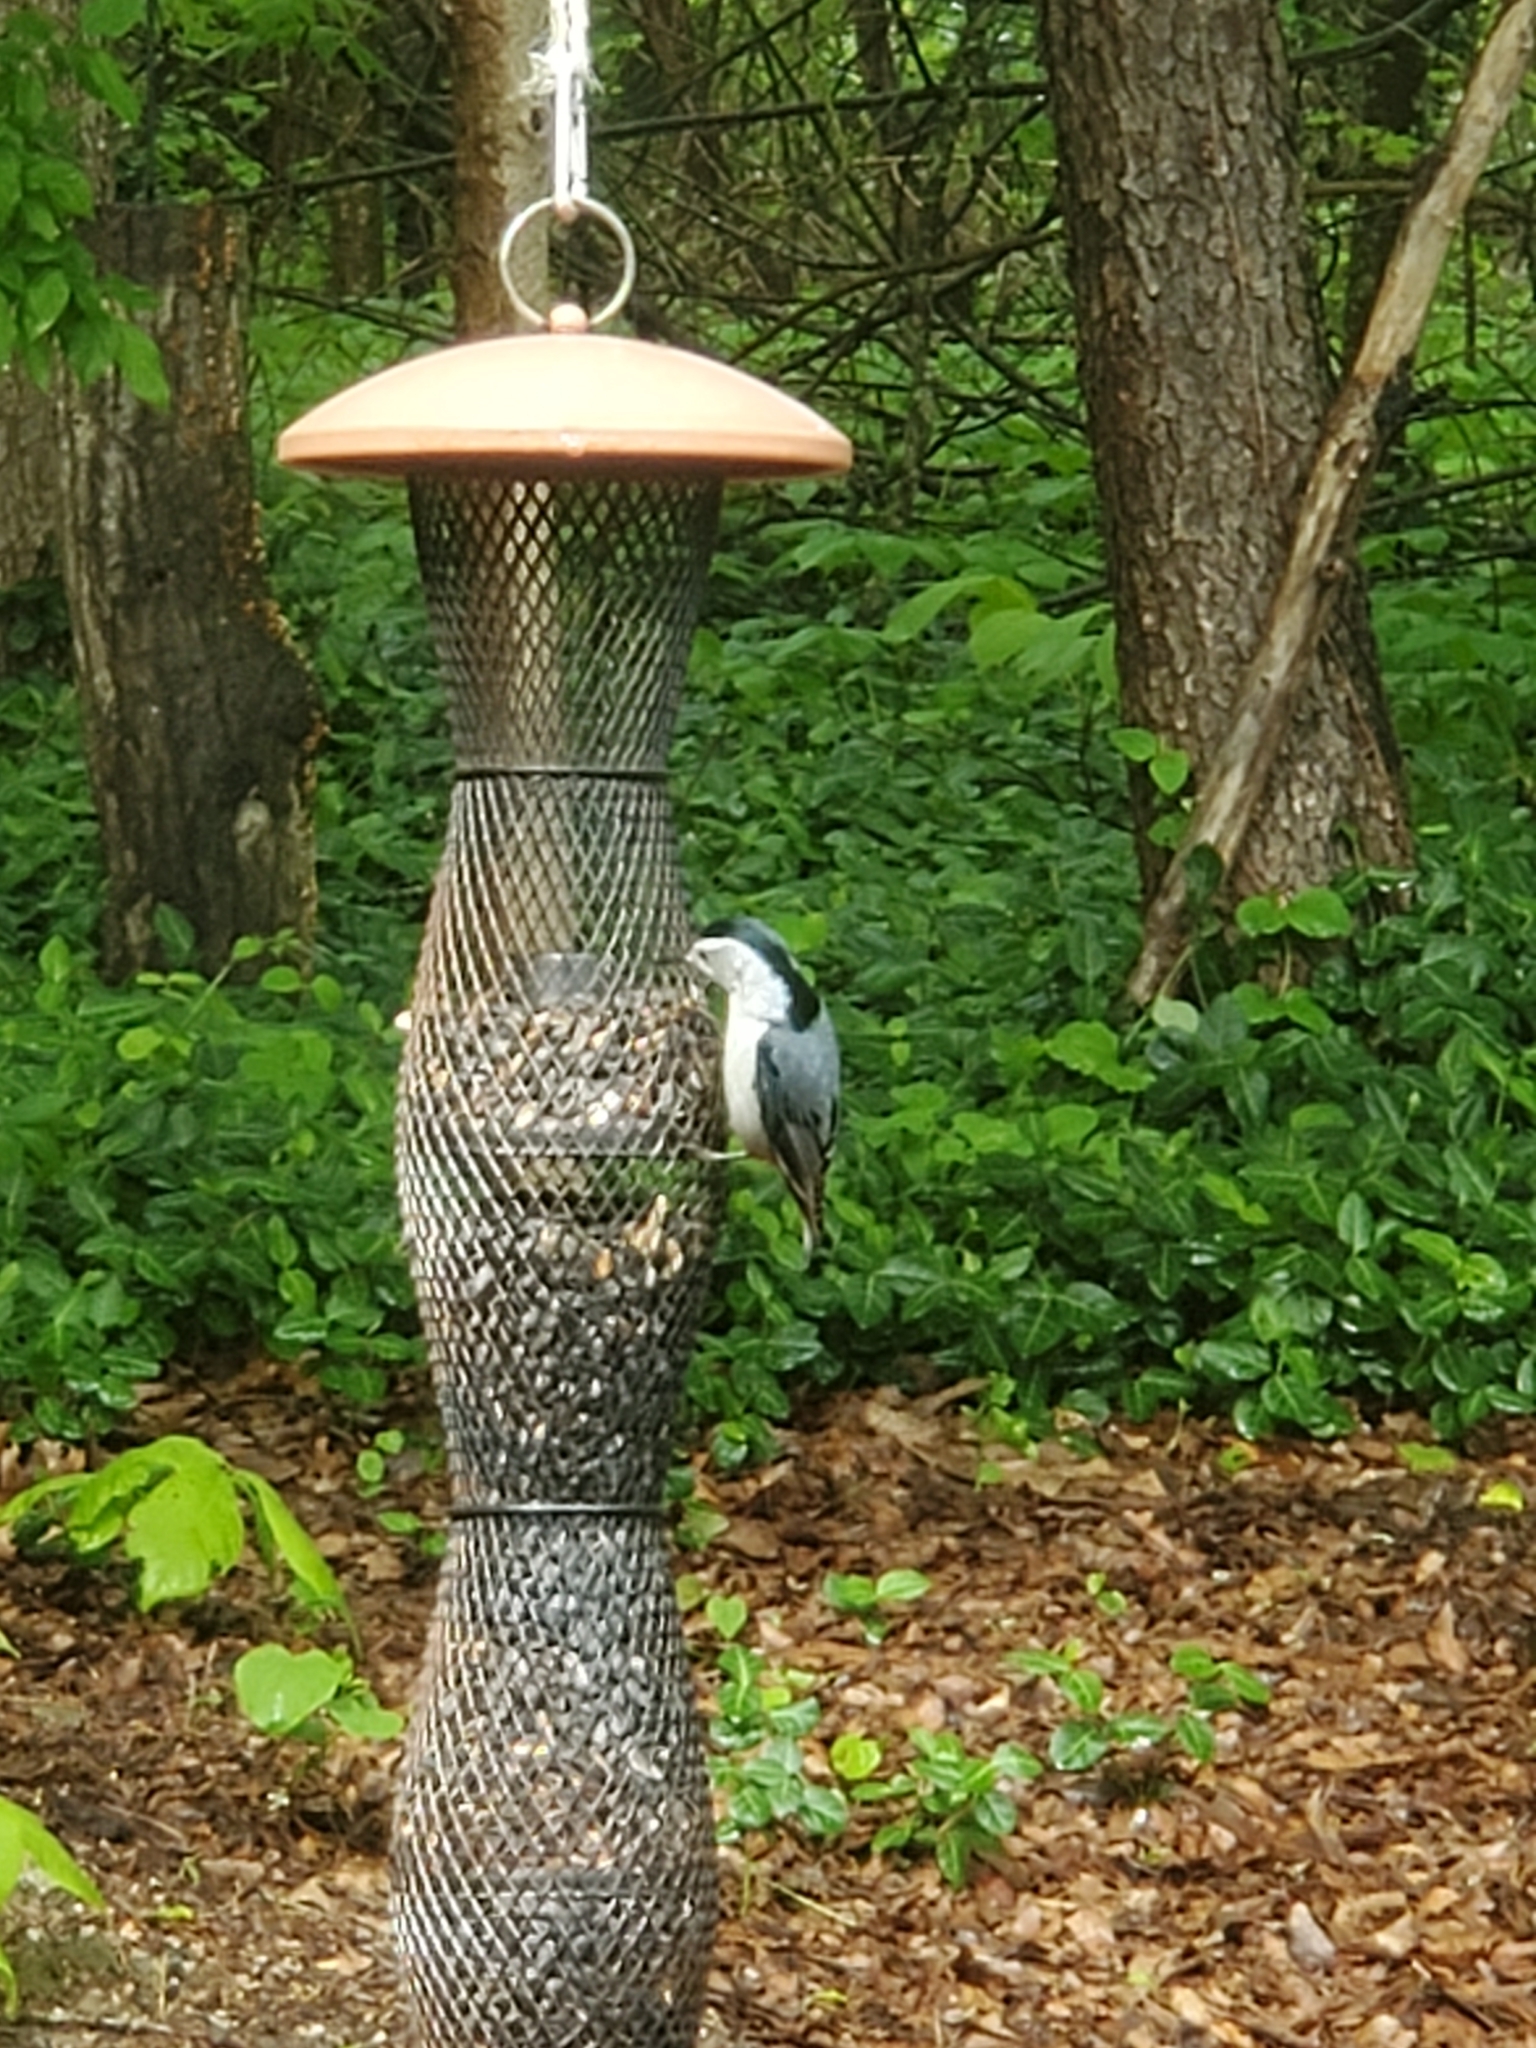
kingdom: Animalia
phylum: Chordata
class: Aves
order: Passeriformes
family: Sittidae
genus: Sitta
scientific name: Sitta carolinensis
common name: White-breasted nuthatch
